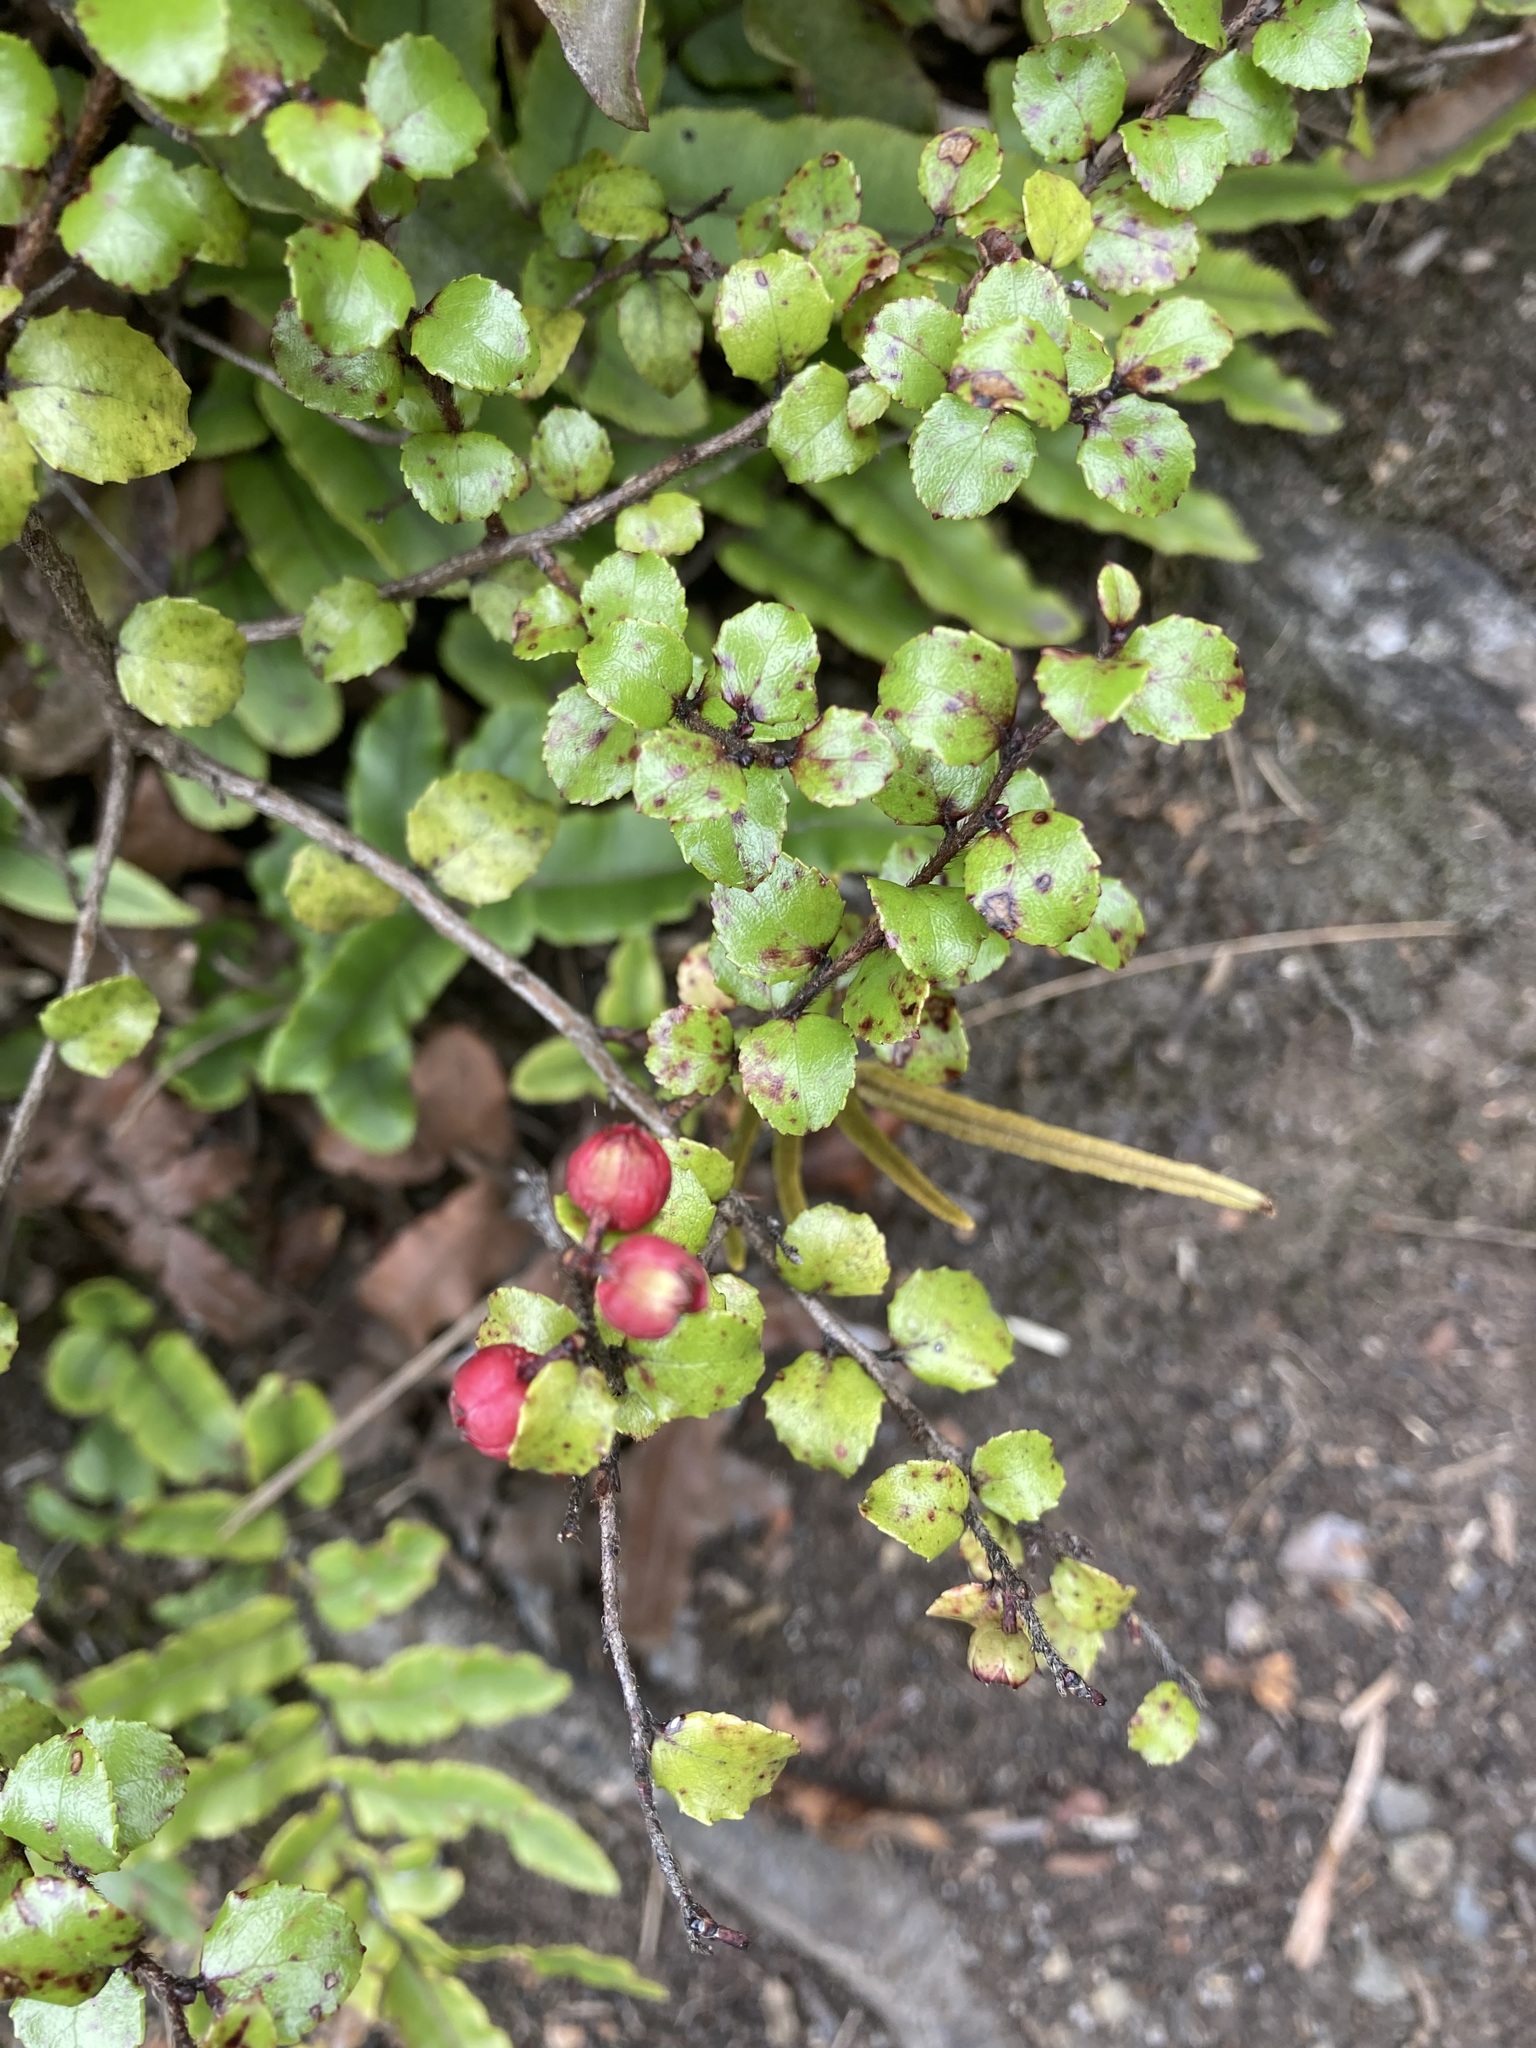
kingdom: Plantae
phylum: Tracheophyta
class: Magnoliopsida
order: Ericales
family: Ericaceae
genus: Gaultheria
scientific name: Gaultheria antipoda
